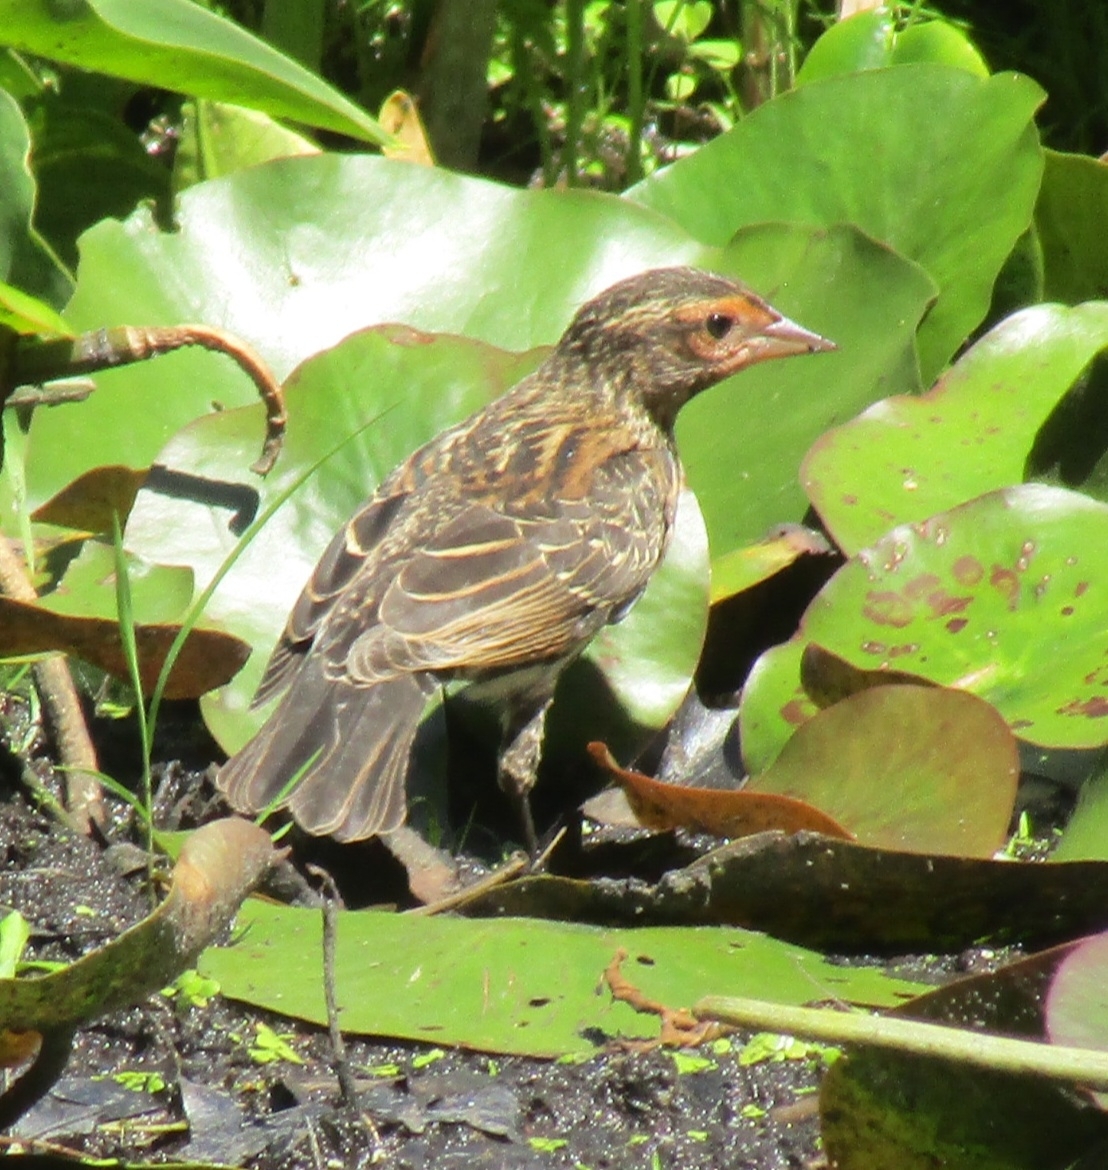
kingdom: Animalia
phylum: Chordata
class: Aves
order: Passeriformes
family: Icteridae
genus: Agelaius
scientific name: Agelaius phoeniceus
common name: Red-winged blackbird
